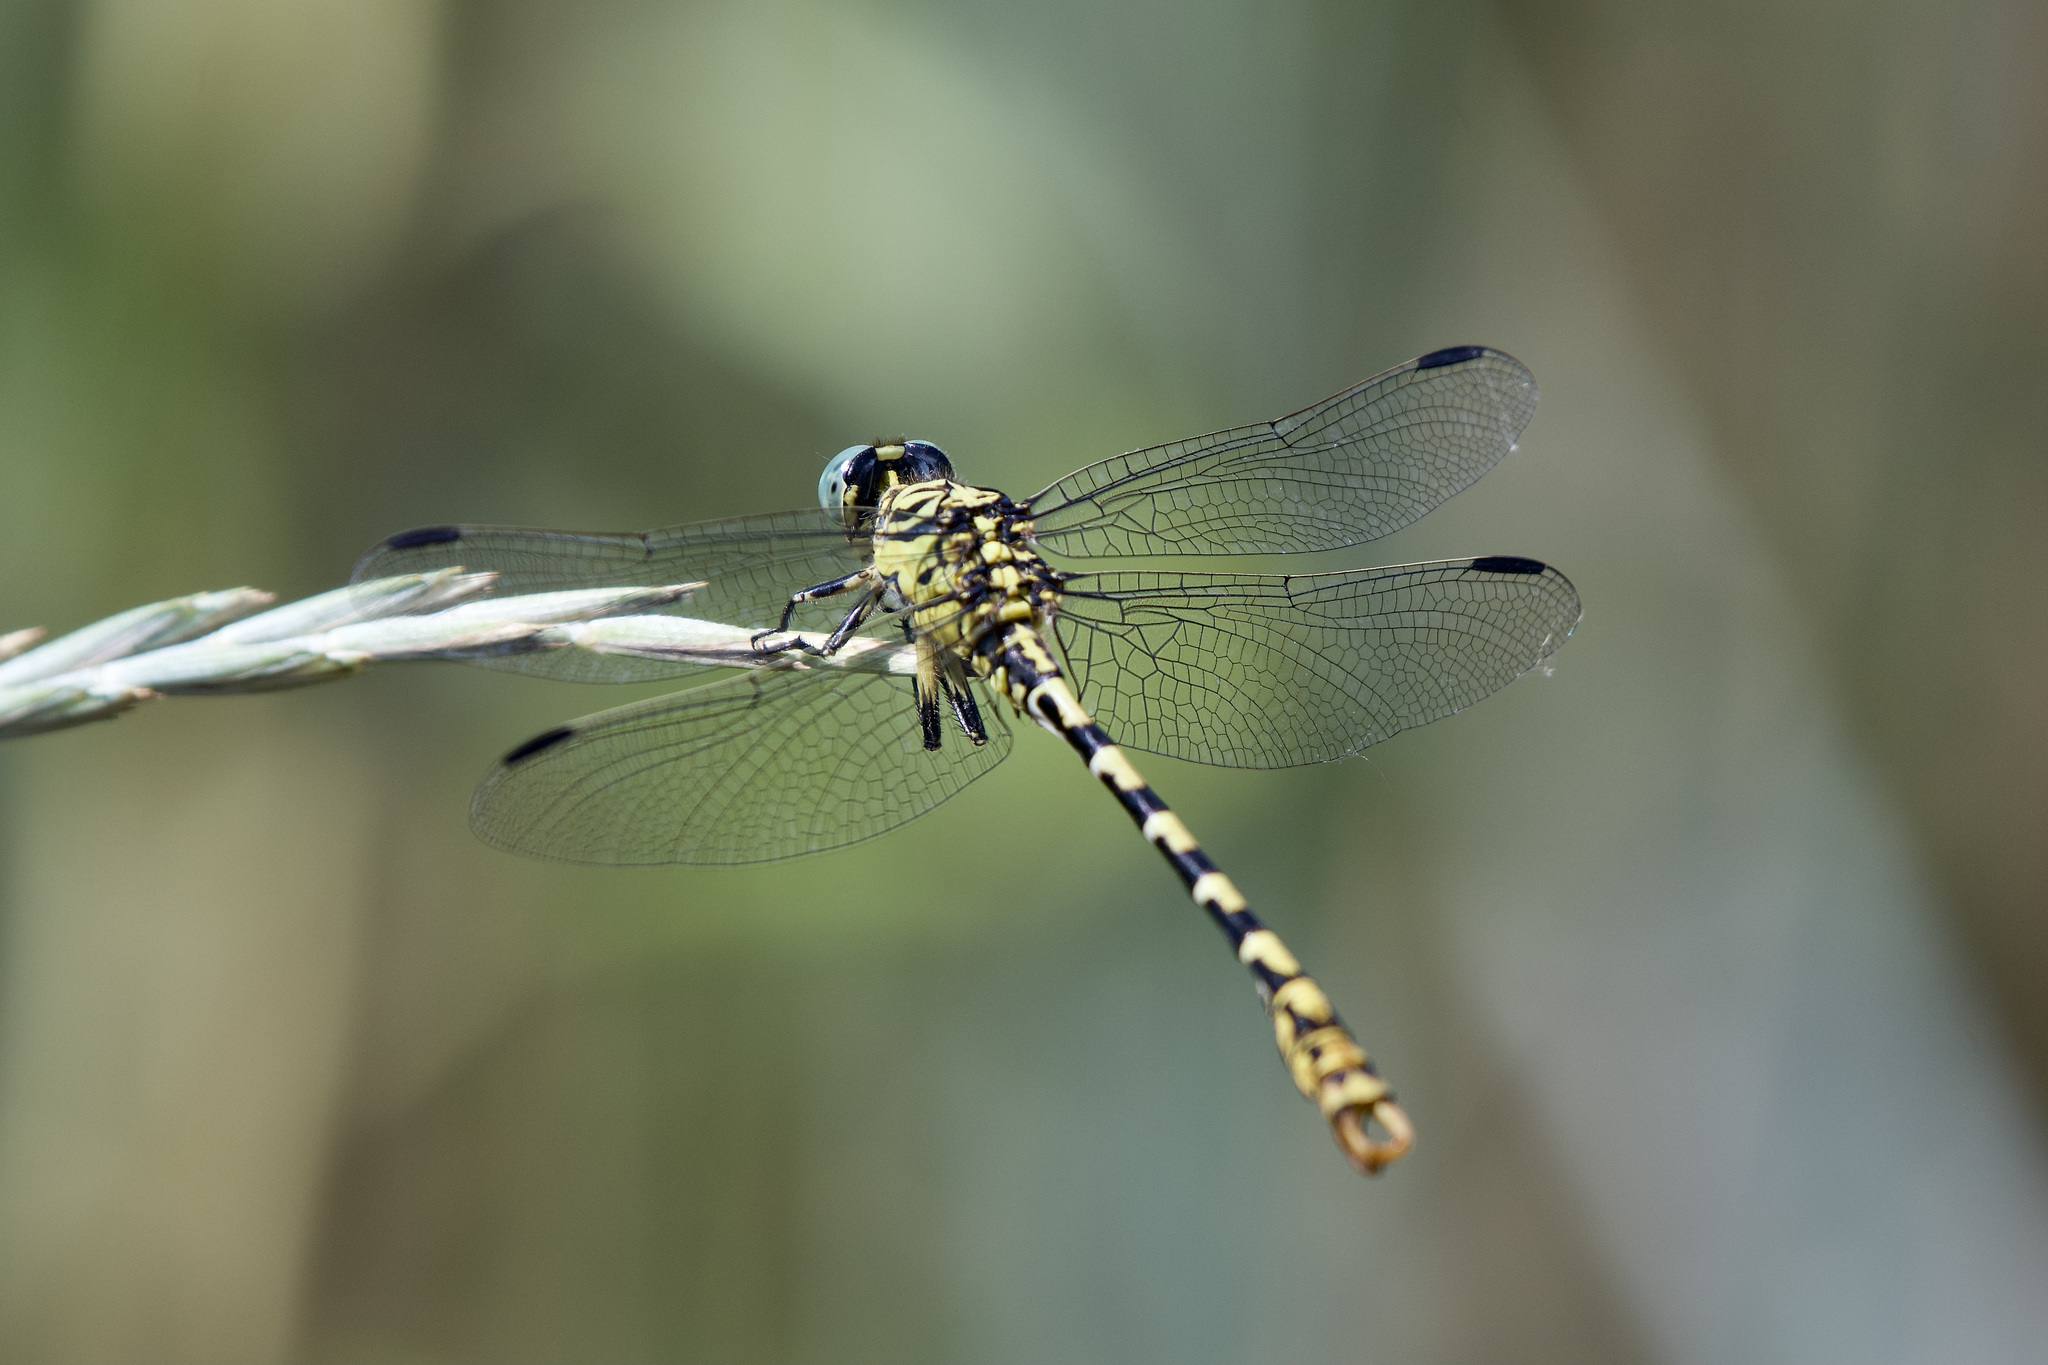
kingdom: Animalia
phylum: Arthropoda
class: Insecta
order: Odonata
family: Gomphidae
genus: Onychogomphus
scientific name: Onychogomphus forcipatus
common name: Small pincertail
